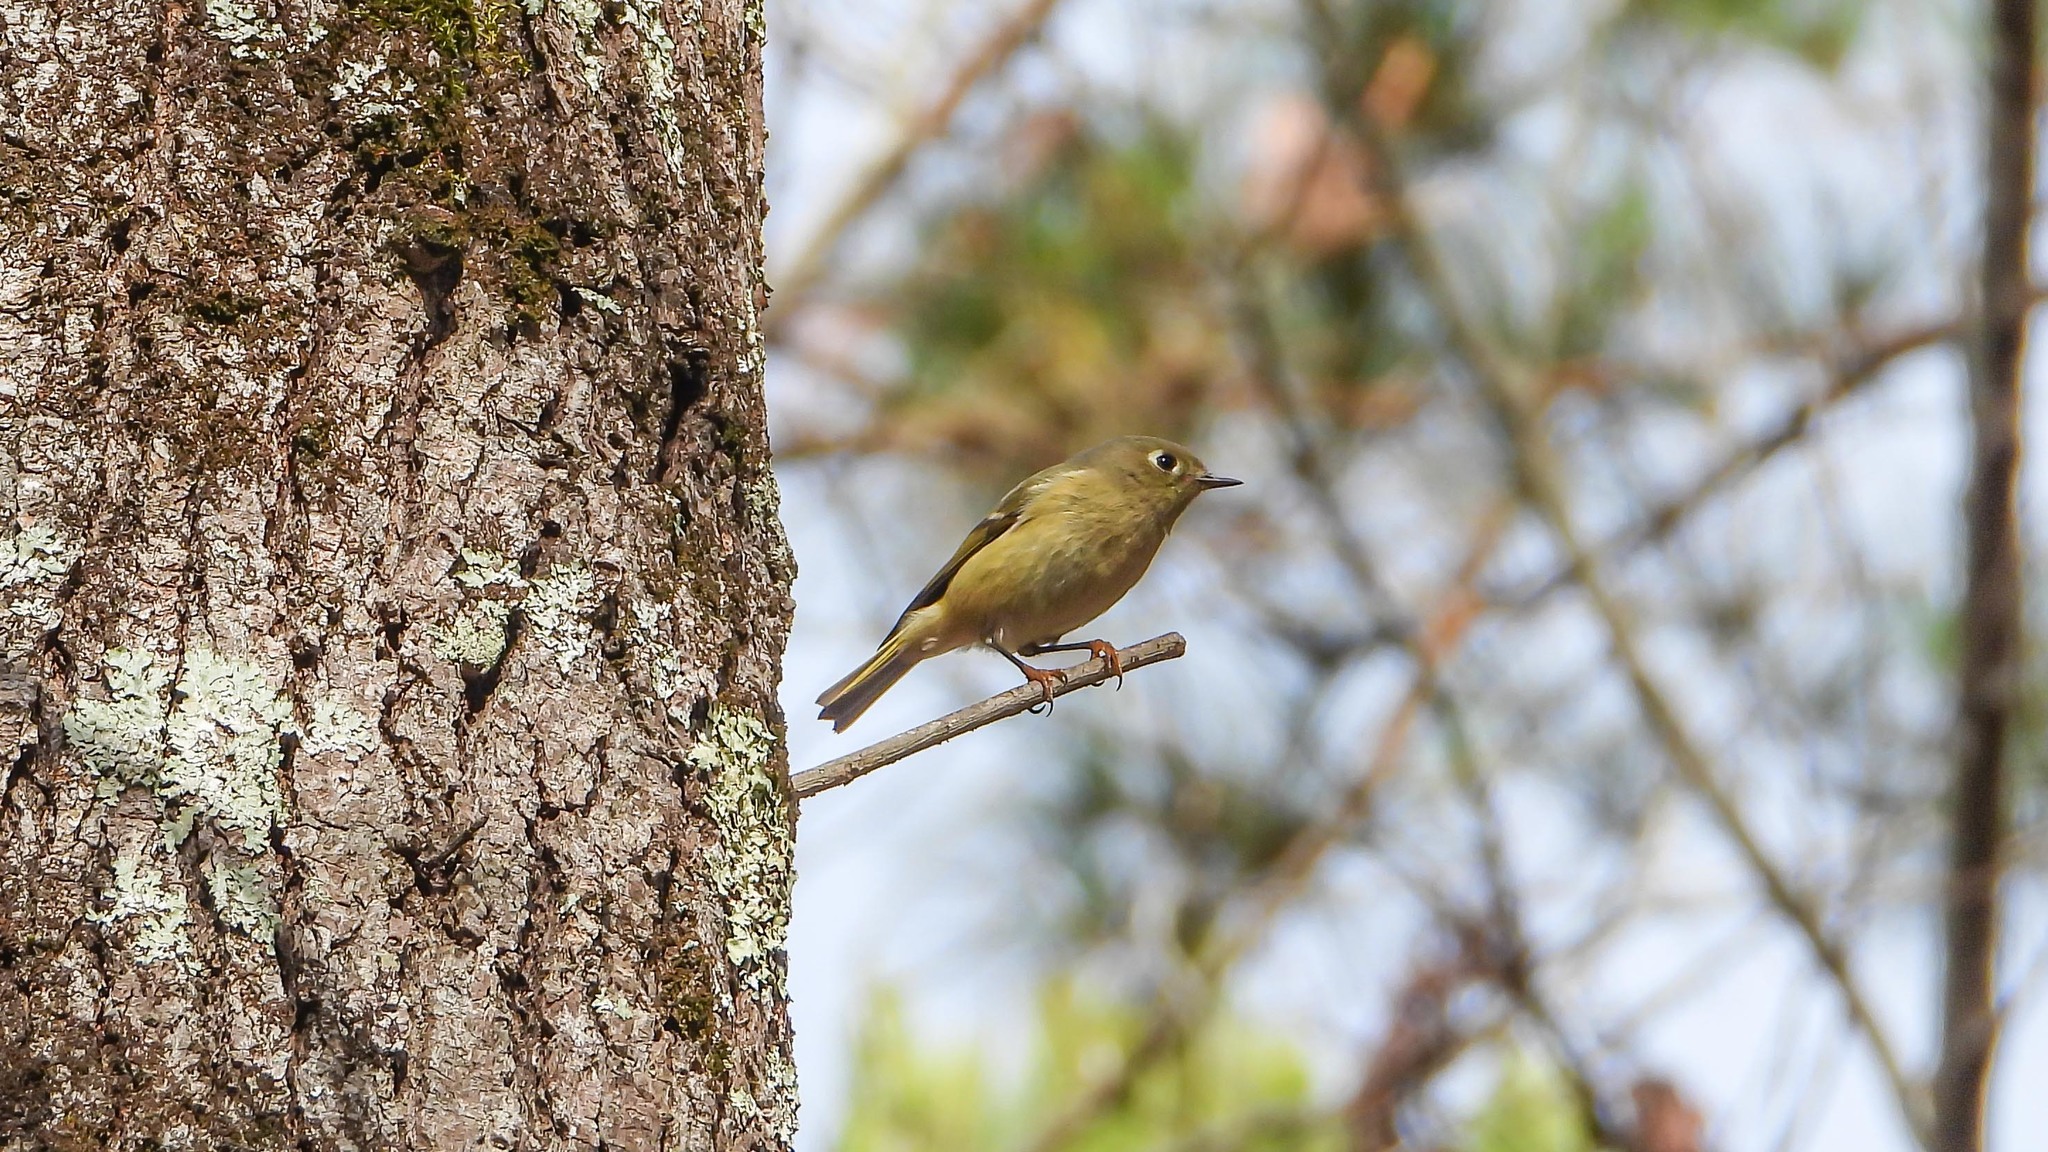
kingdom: Animalia
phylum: Chordata
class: Aves
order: Passeriformes
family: Regulidae
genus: Regulus
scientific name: Regulus calendula
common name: Ruby-crowned kinglet
